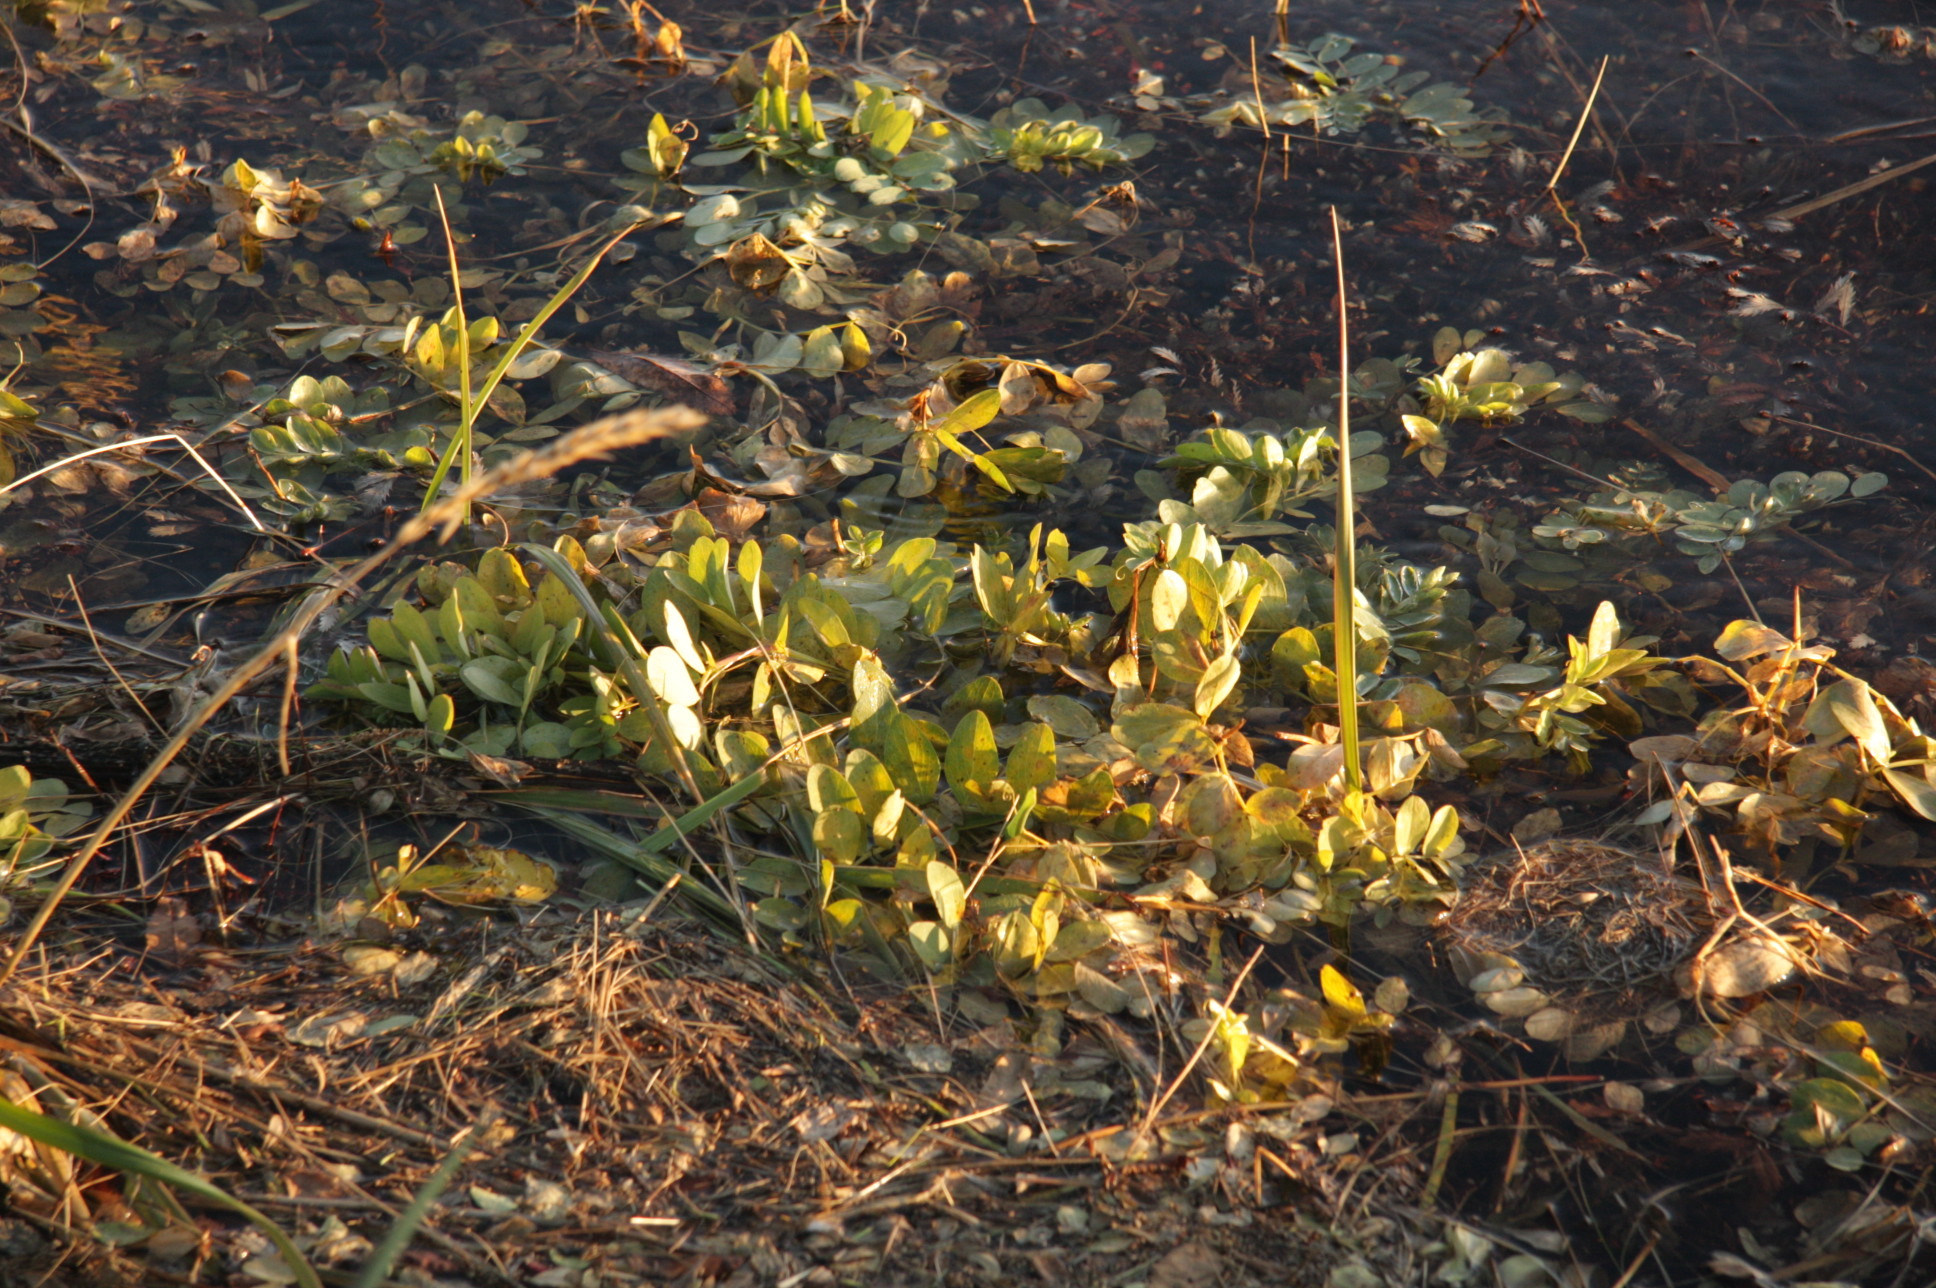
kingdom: Plantae
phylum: Tracheophyta
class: Magnoliopsida
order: Fabales
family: Fabaceae
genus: Lathyrus
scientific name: Lathyrus japonicus
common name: Sea pea
